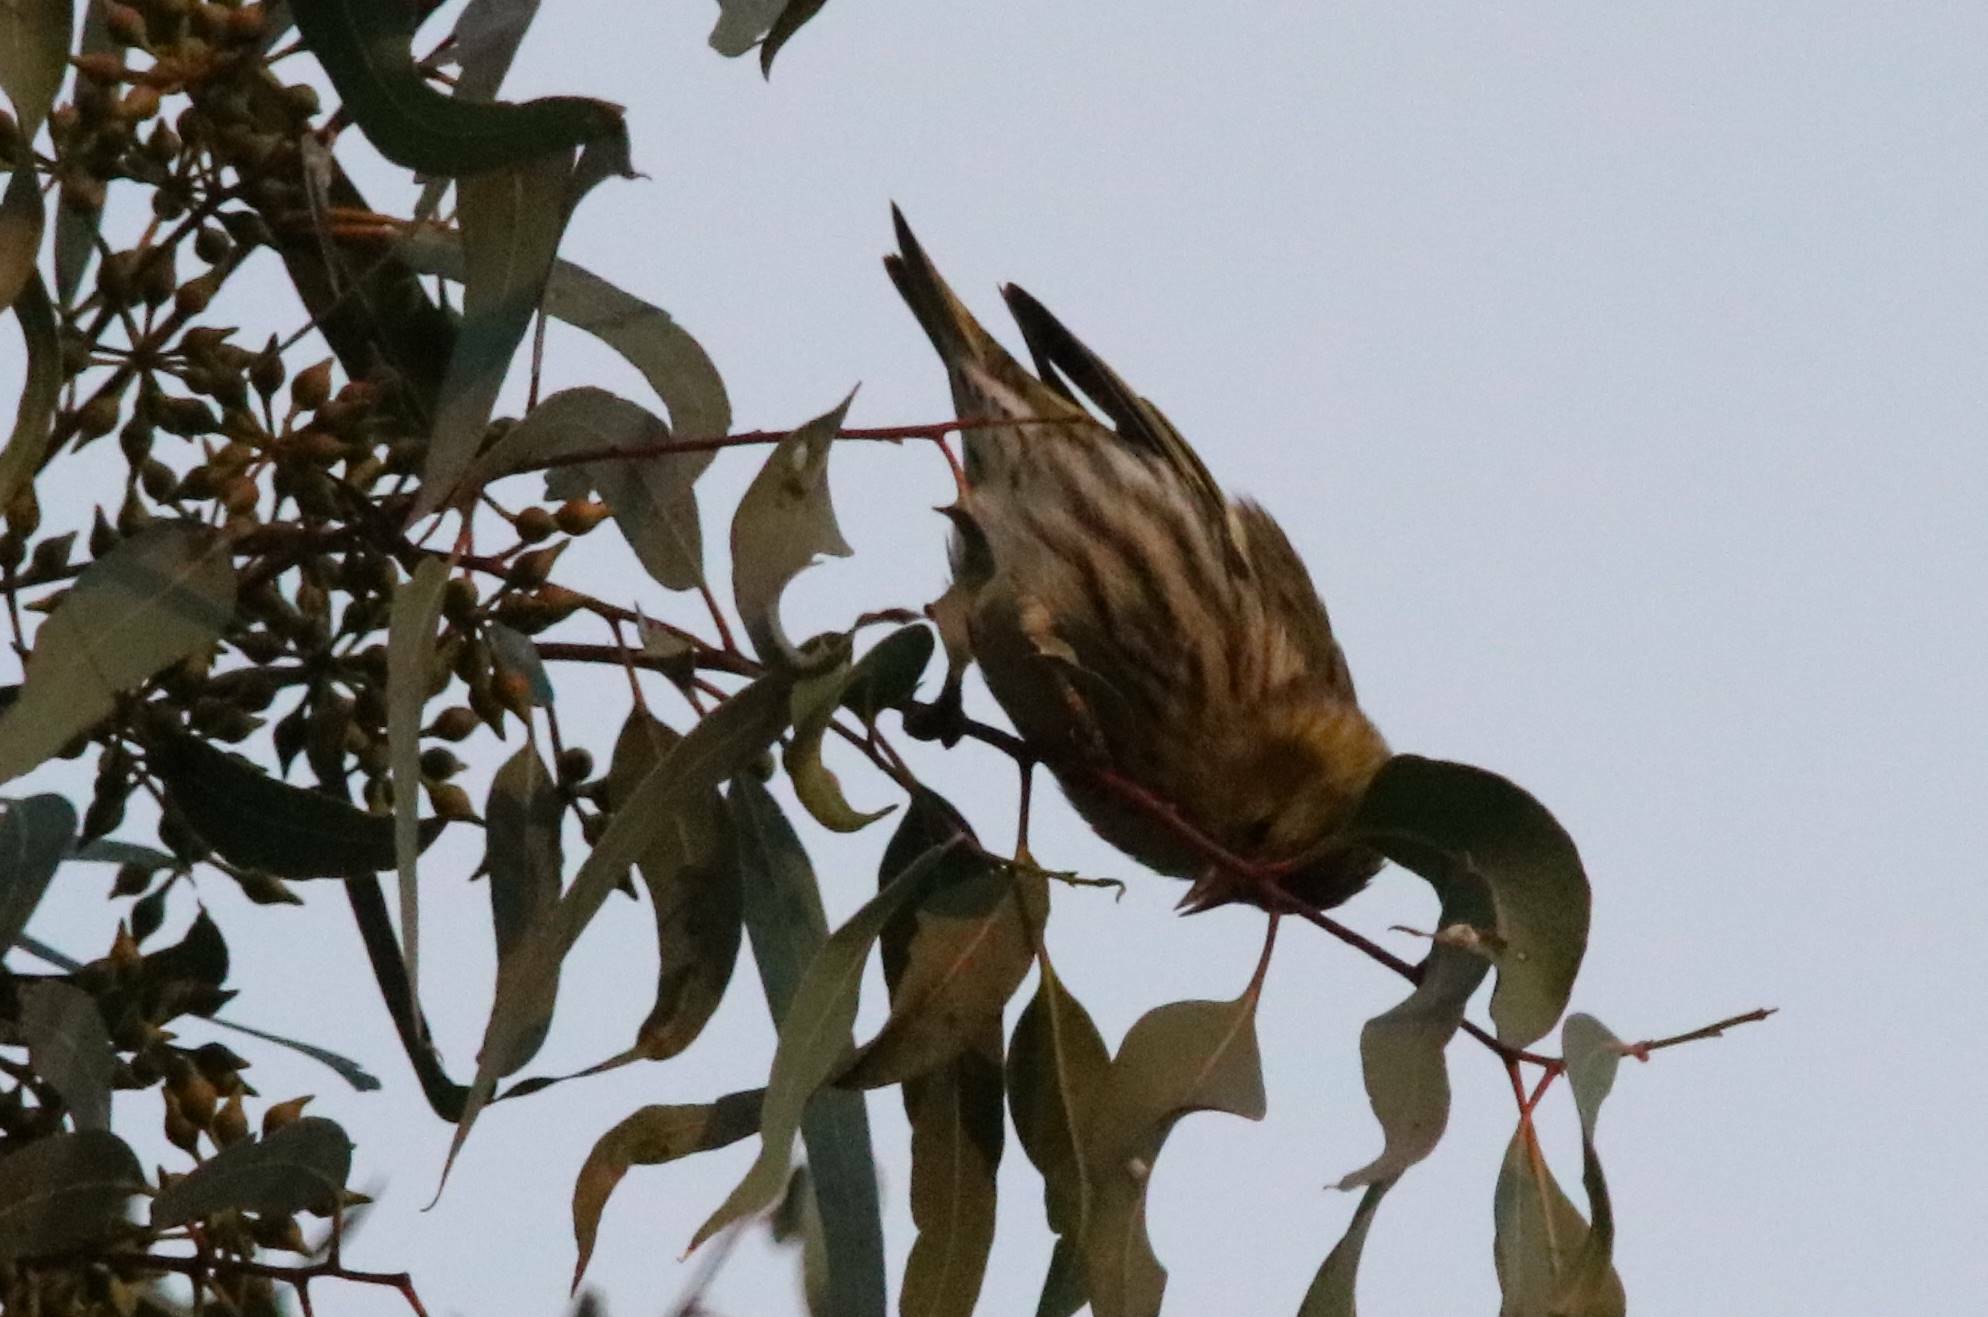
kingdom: Animalia
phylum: Chordata
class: Aves
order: Passeriformes
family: Fringillidae
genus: Serinus
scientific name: Serinus serinus
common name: European serin
